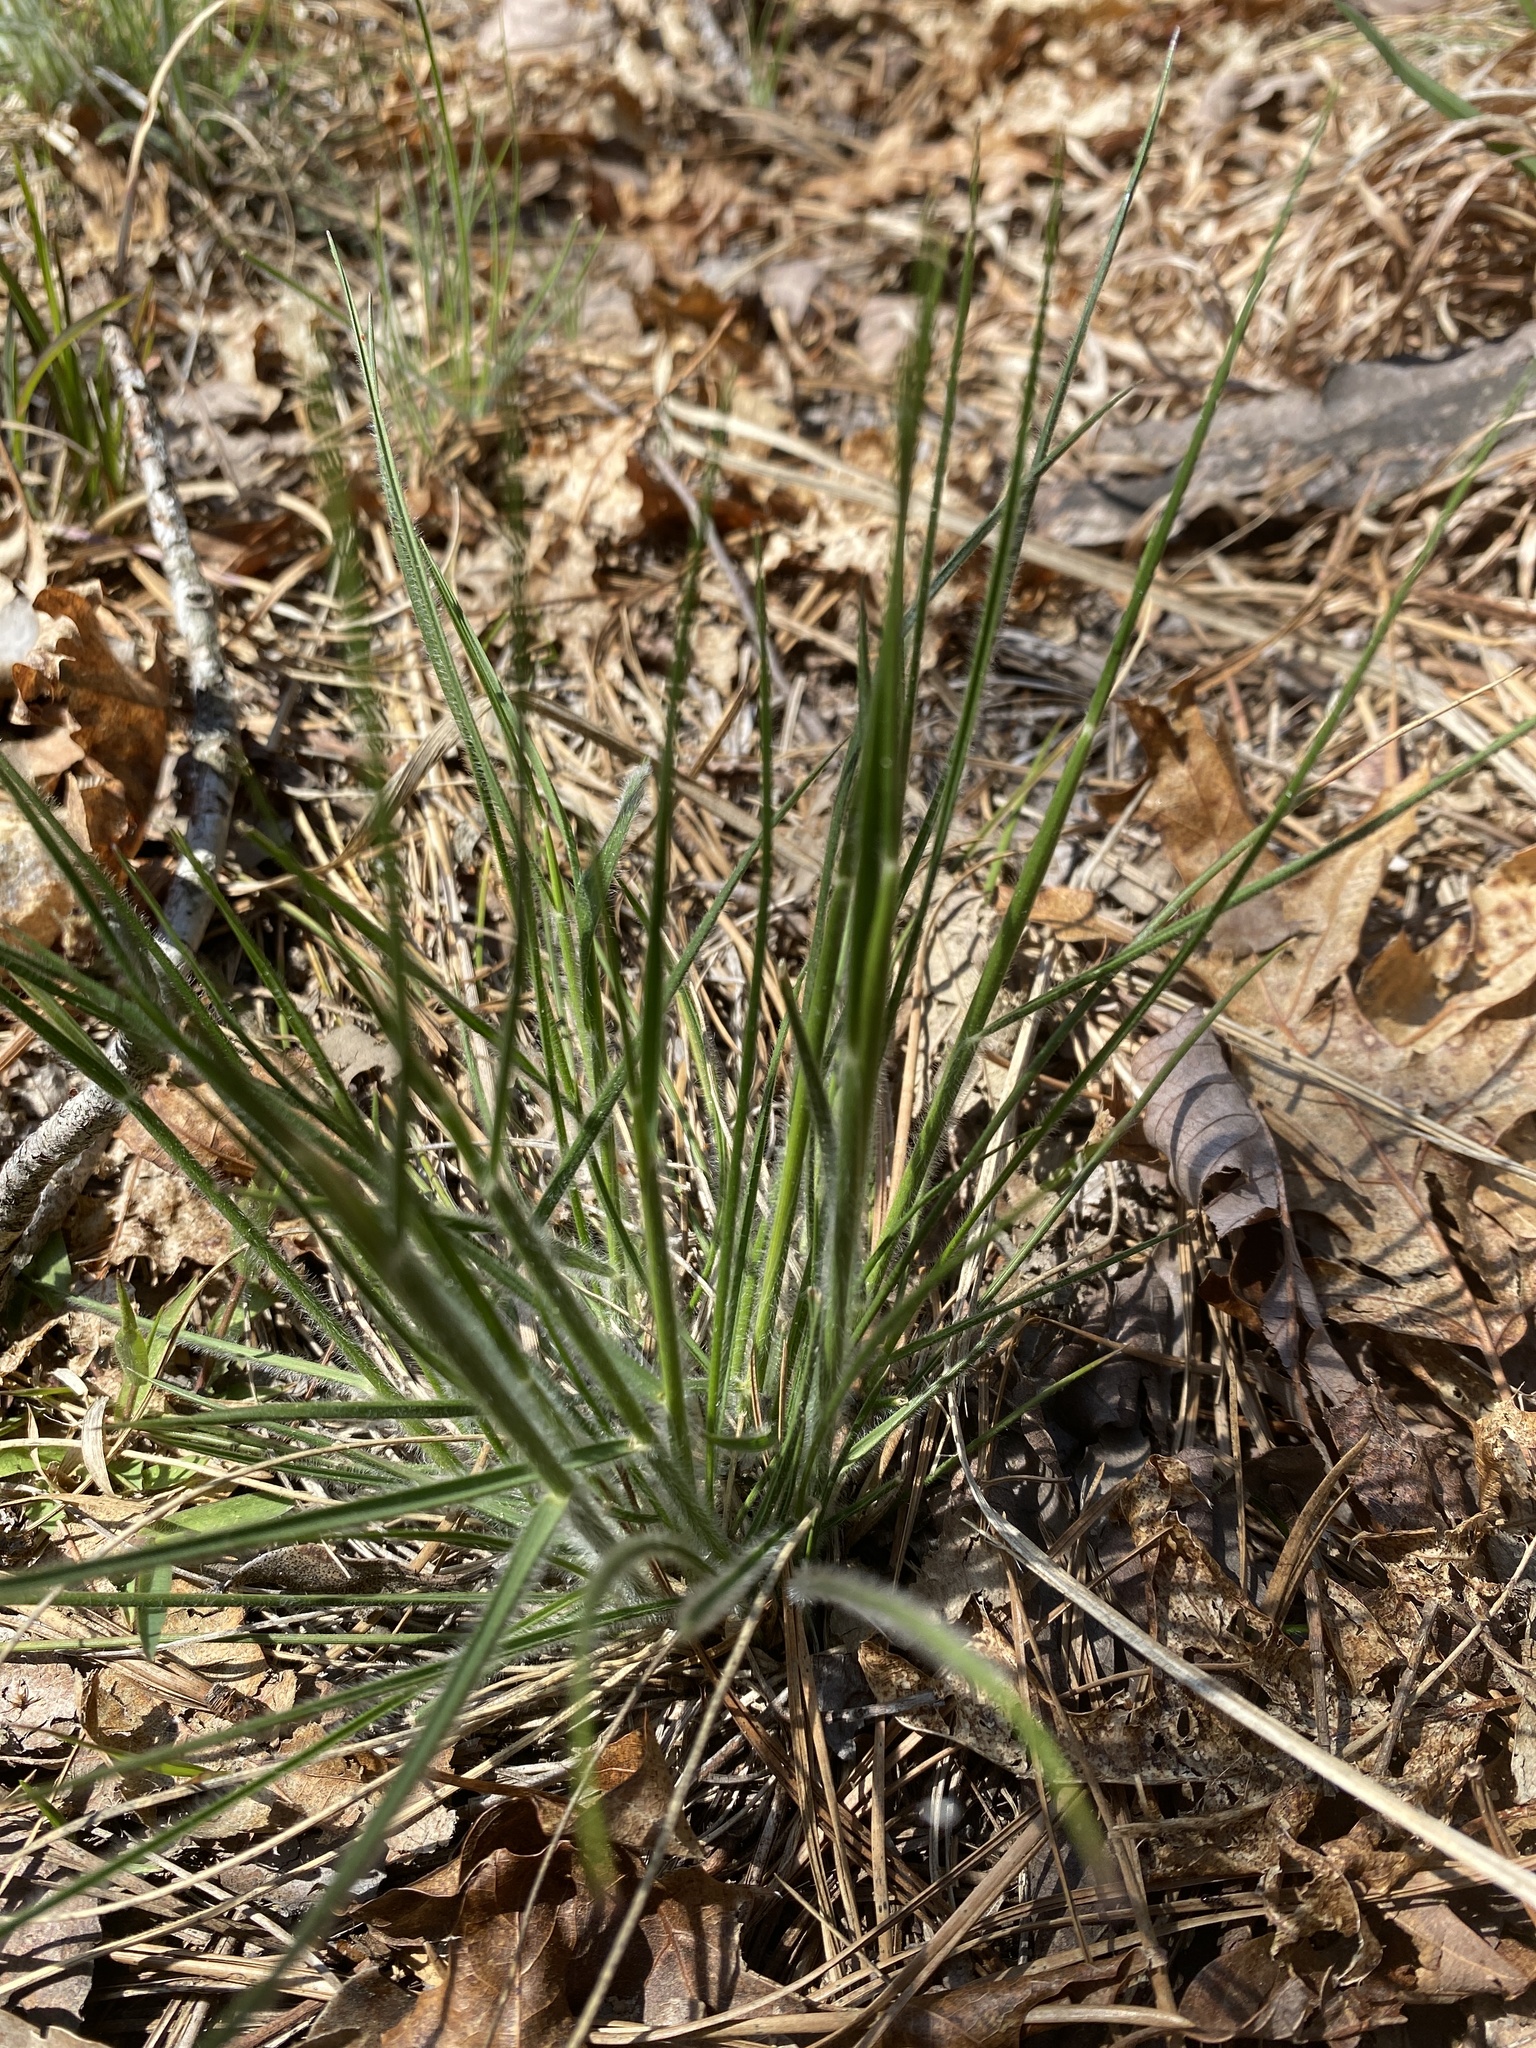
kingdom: Plantae
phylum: Tracheophyta
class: Liliopsida
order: Poales
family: Poaceae
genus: Danthonia
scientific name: Danthonia sericea
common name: Downy danthonia
